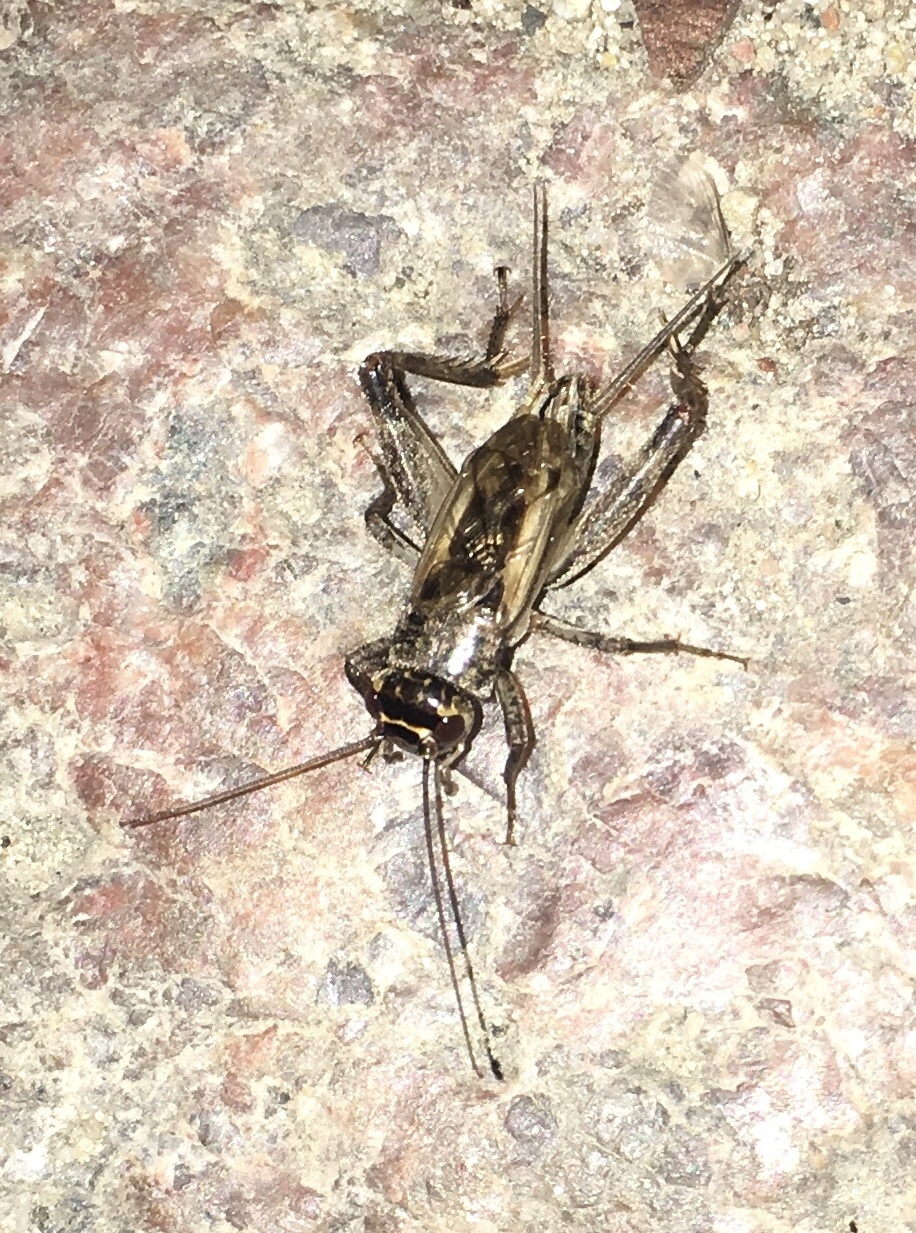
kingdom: Animalia
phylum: Arthropoda
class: Insecta
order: Orthoptera
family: Gryllidae
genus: Eumodicogryllus
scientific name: Eumodicogryllus bordigalensis
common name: Bordeaux cricket
